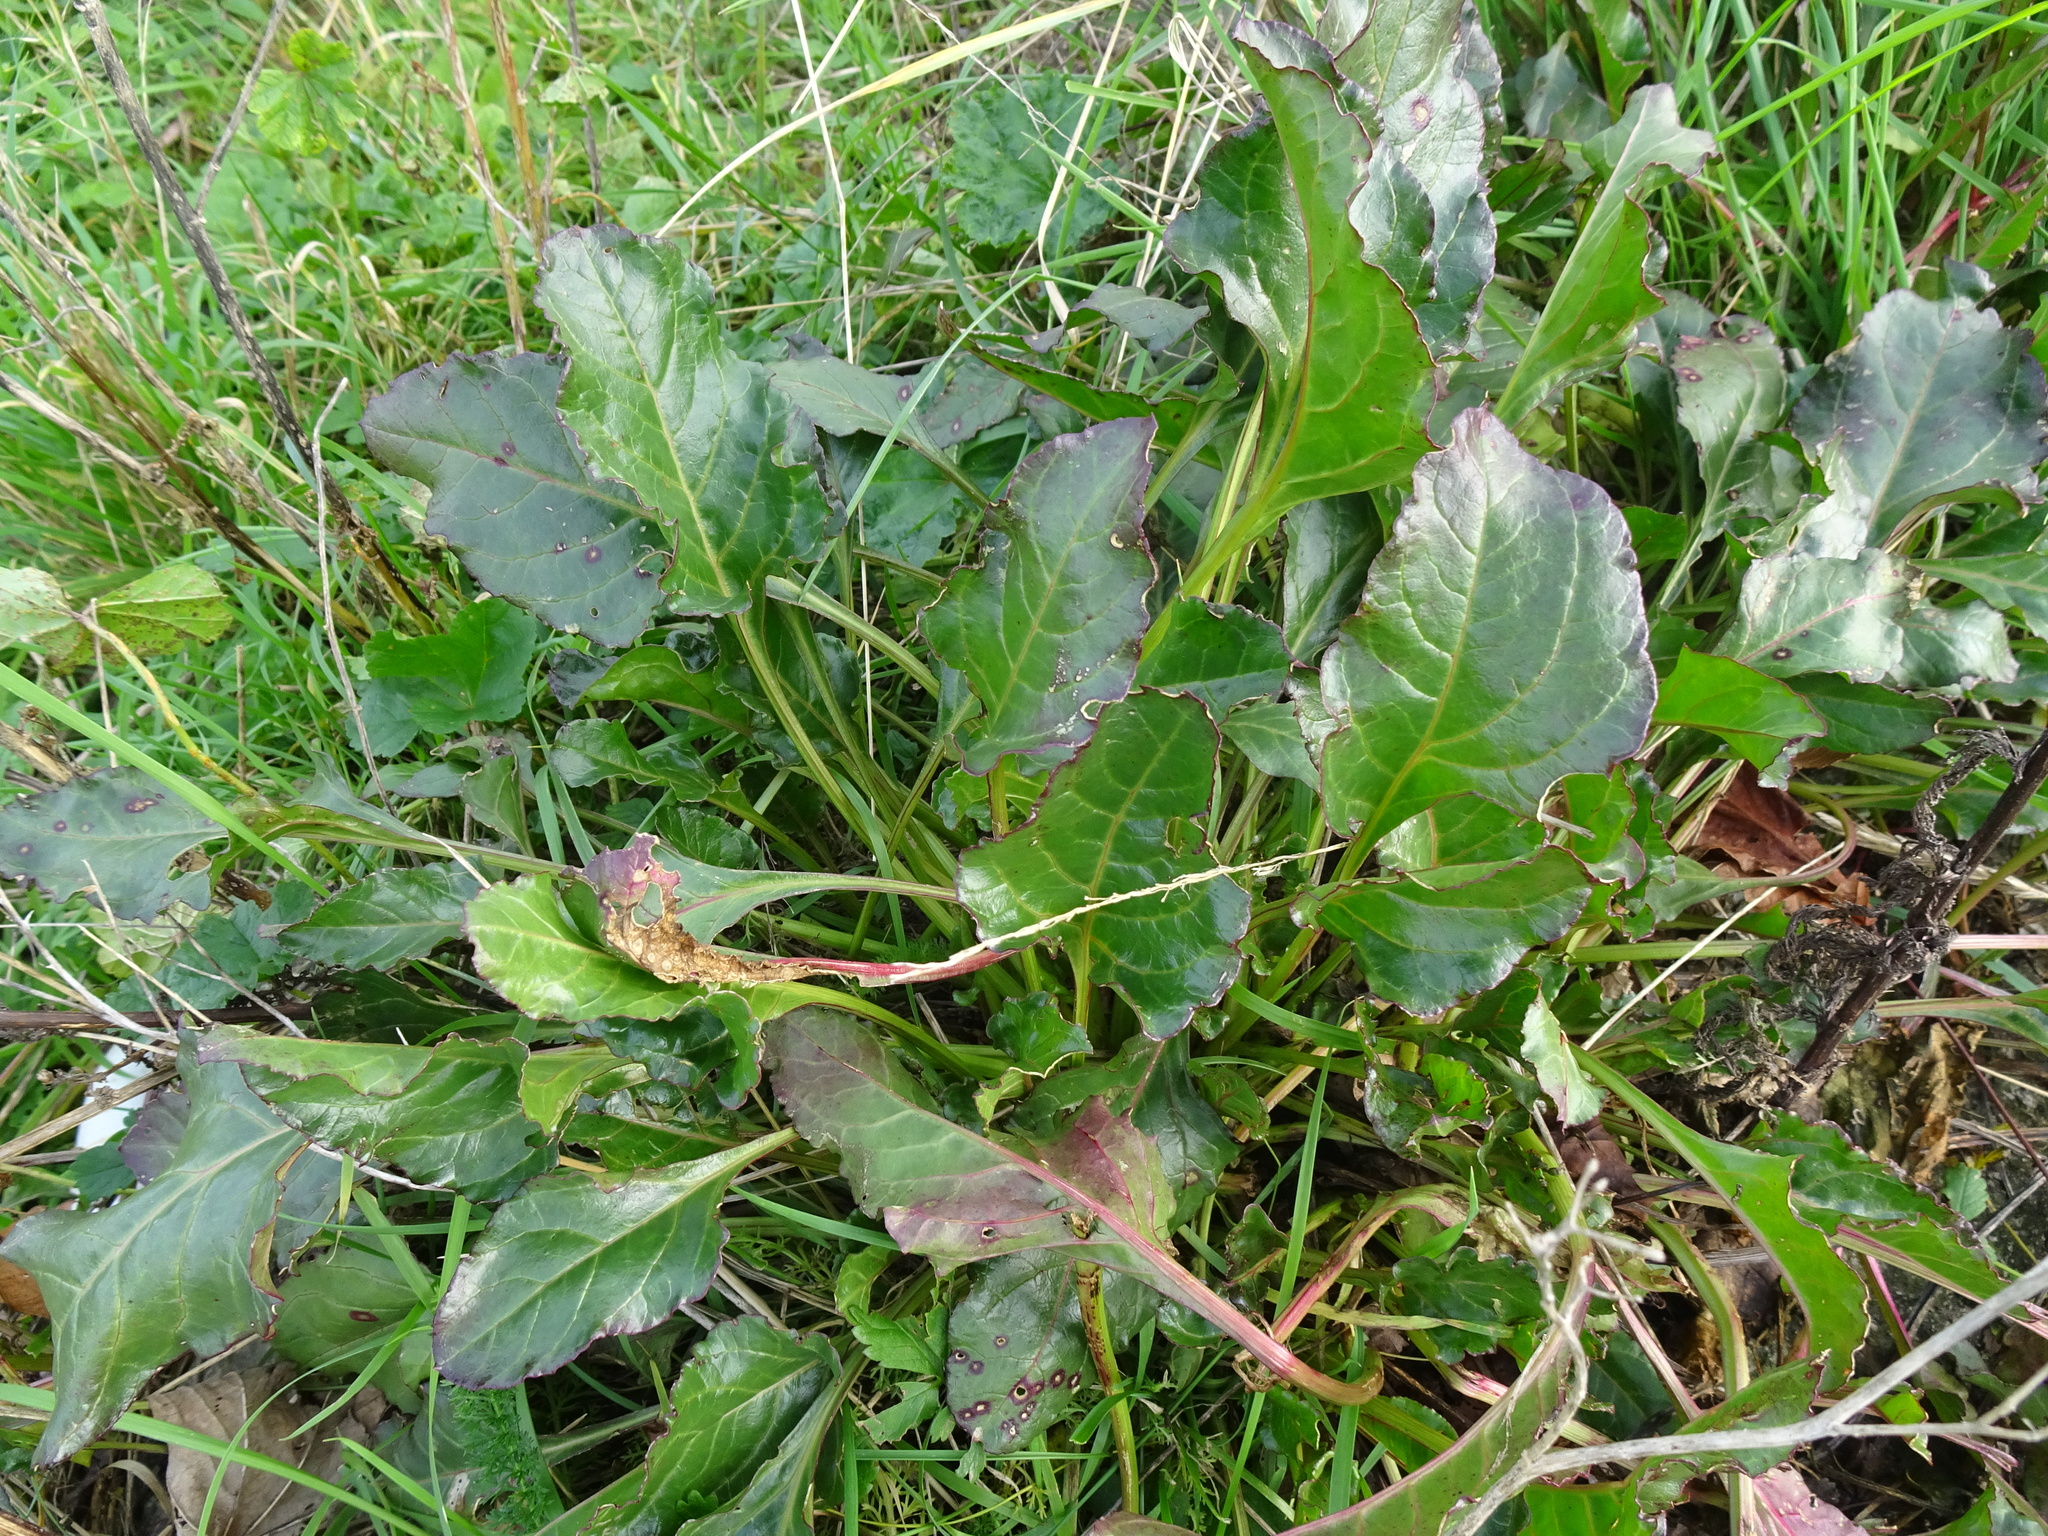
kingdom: Plantae
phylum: Tracheophyta
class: Magnoliopsida
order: Caryophyllales
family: Amaranthaceae
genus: Beta
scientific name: Beta vulgaris
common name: Beet
